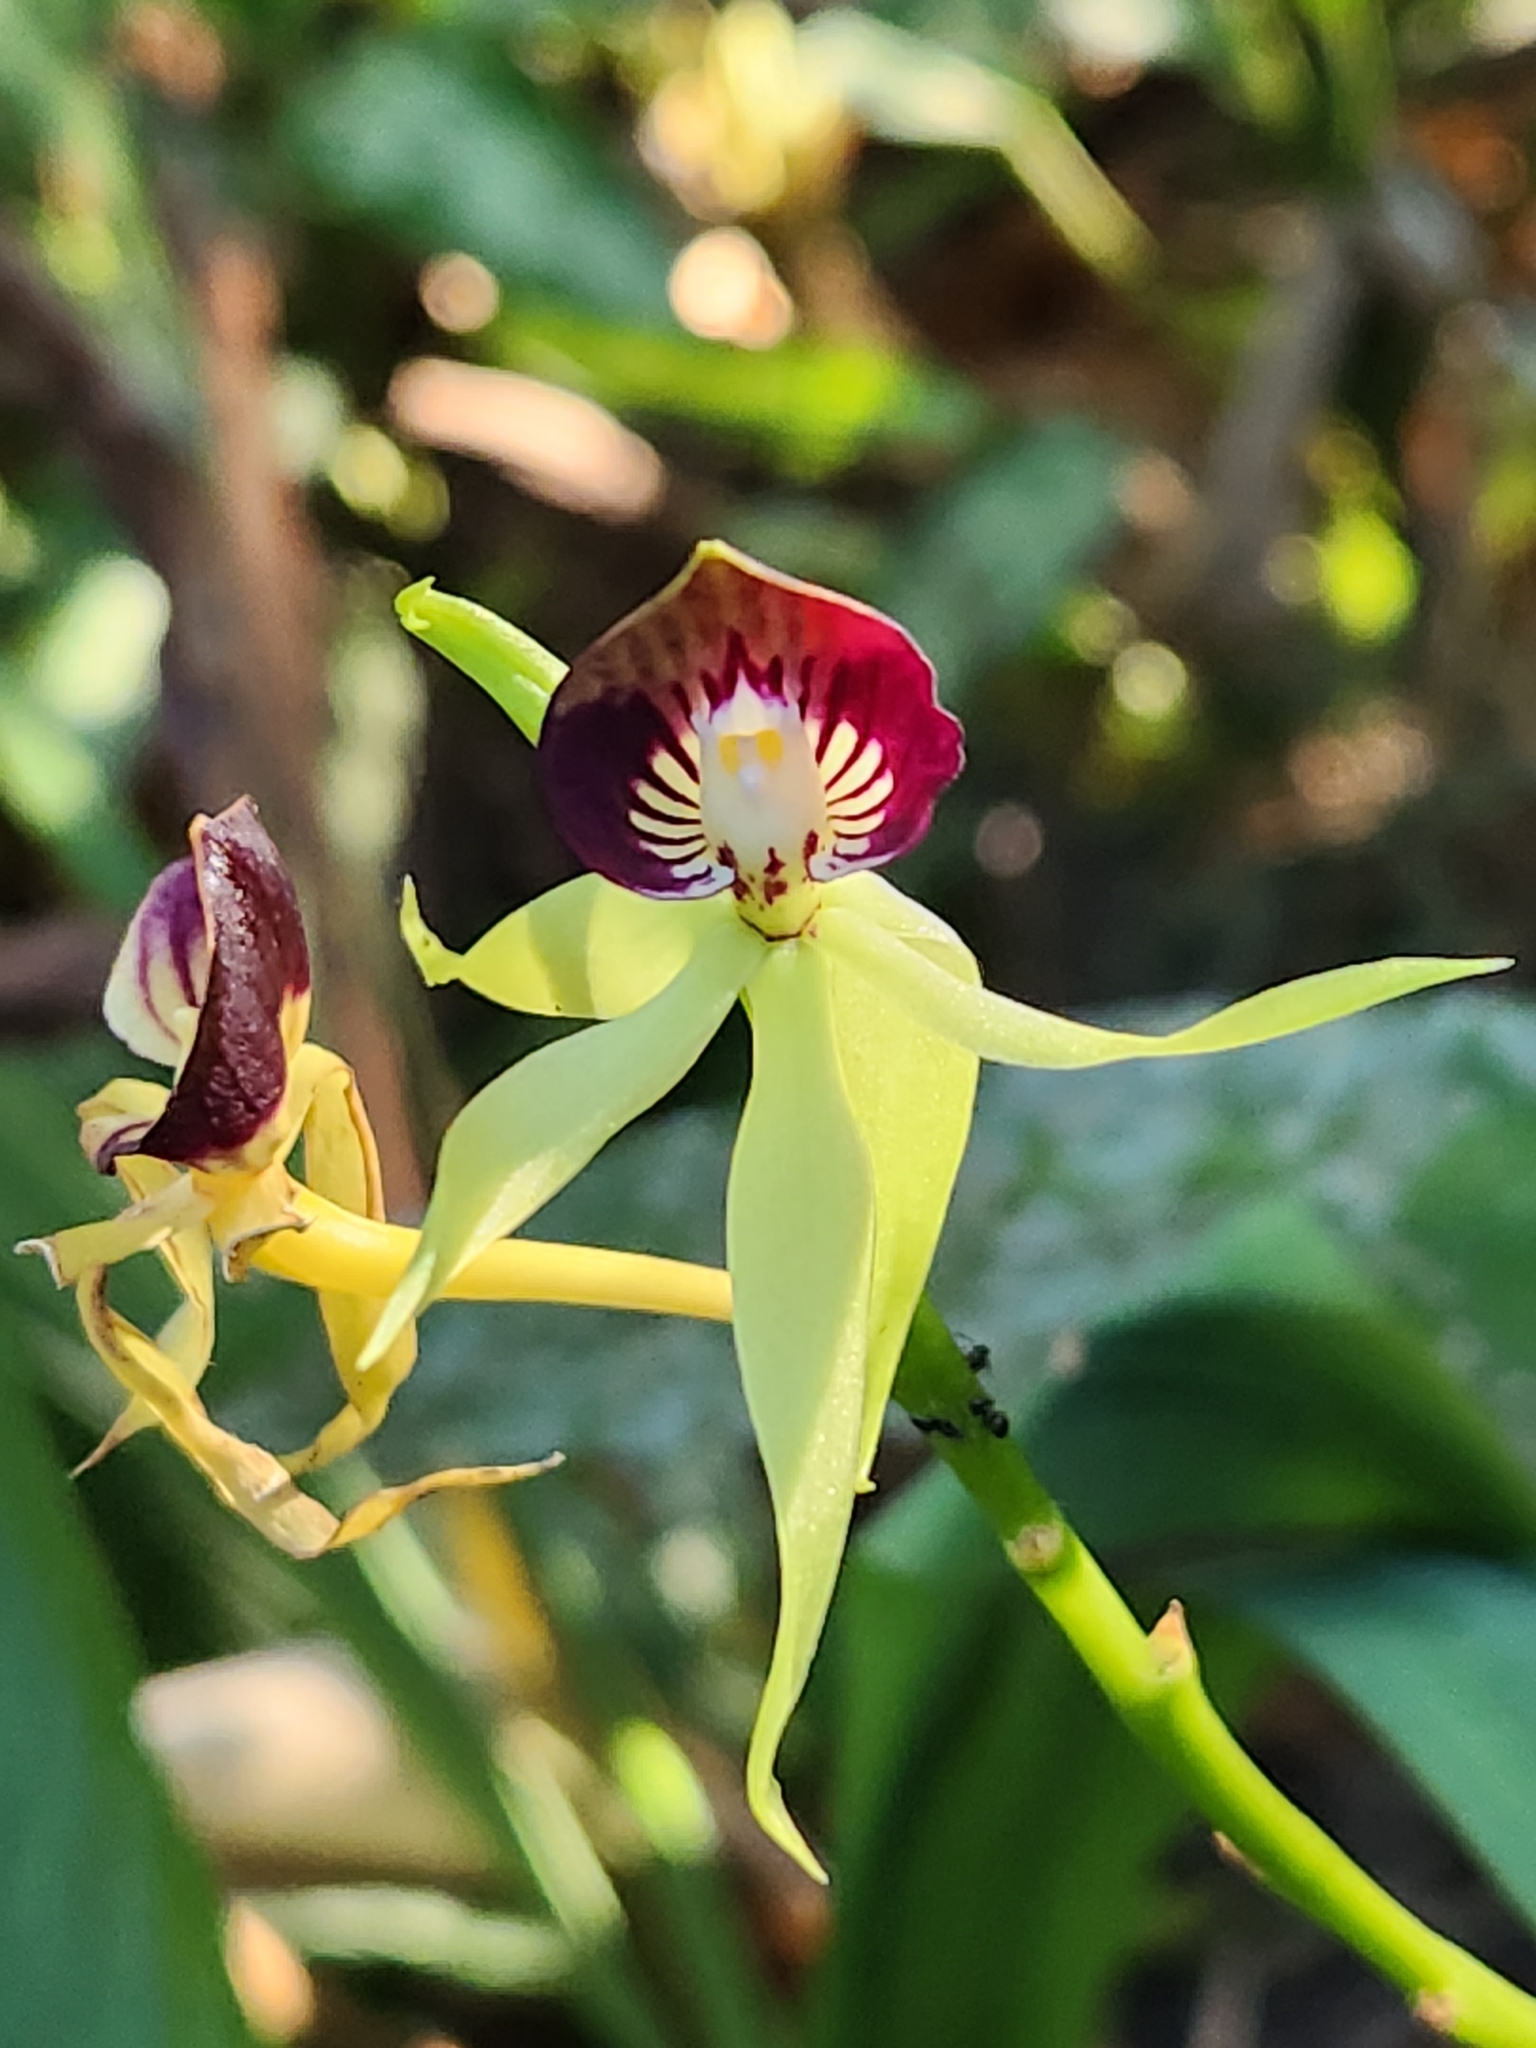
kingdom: Plantae
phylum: Tracheophyta
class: Liliopsida
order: Asparagales
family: Orchidaceae
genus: Prosthechea
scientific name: Prosthechea cochleata
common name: Clamshell orchid
